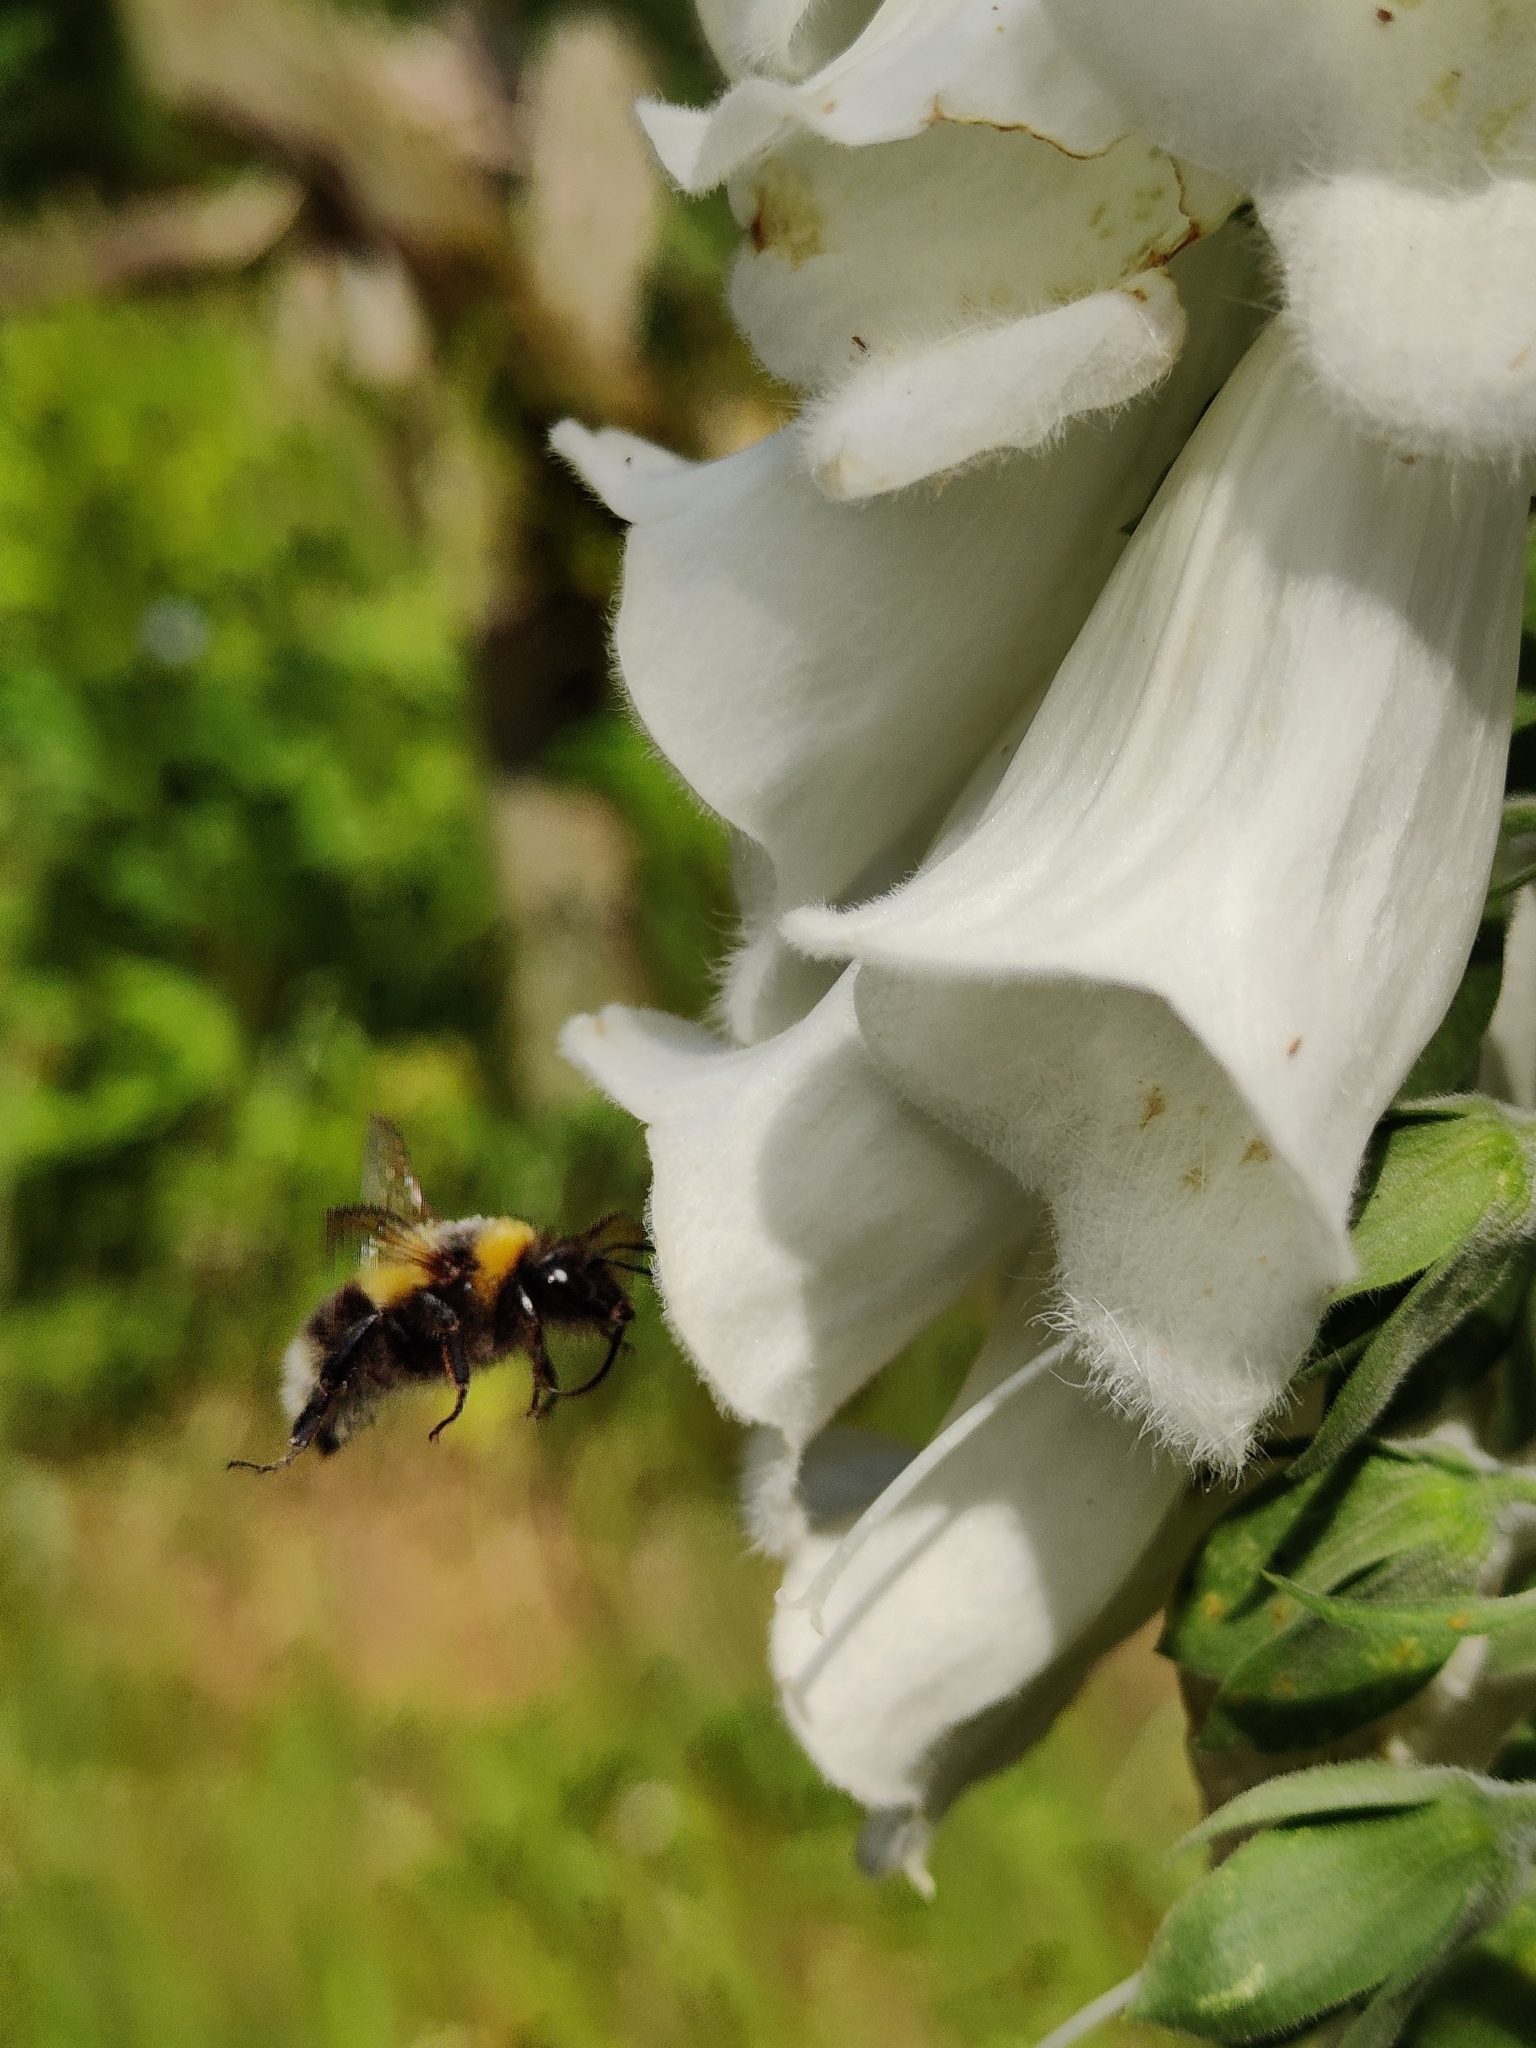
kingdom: Animalia
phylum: Arthropoda
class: Insecta
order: Hymenoptera
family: Apidae
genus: Bombus
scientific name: Bombus hortorum
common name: Garden bumblebee
